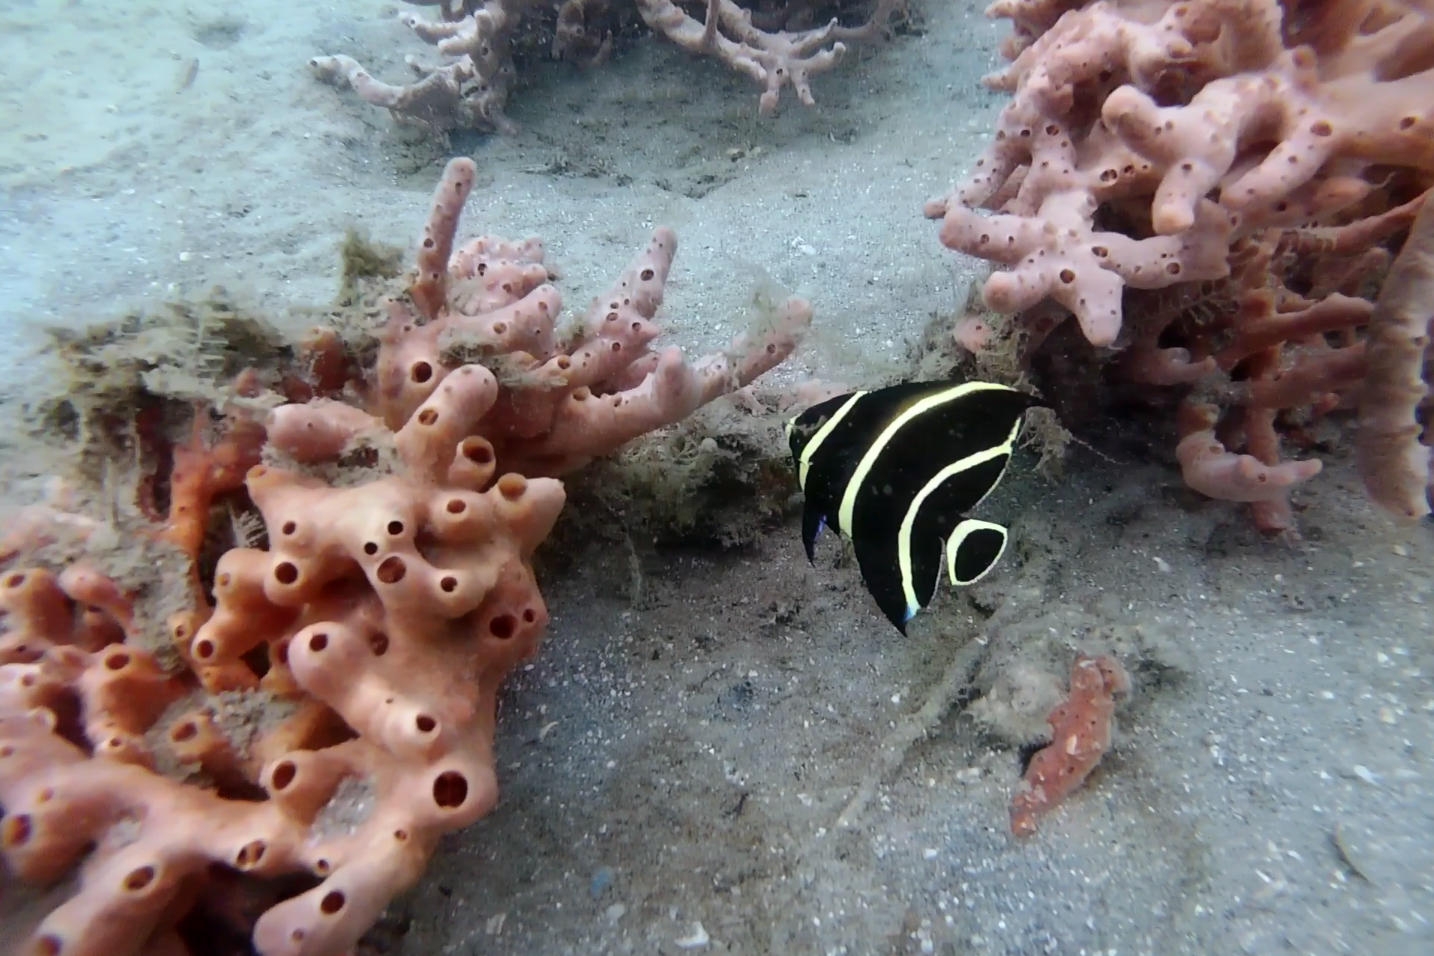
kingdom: Animalia
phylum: Chordata
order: Perciformes
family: Pomacanthidae
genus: Pomacanthus
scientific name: Pomacanthus paru
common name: French angelfish
